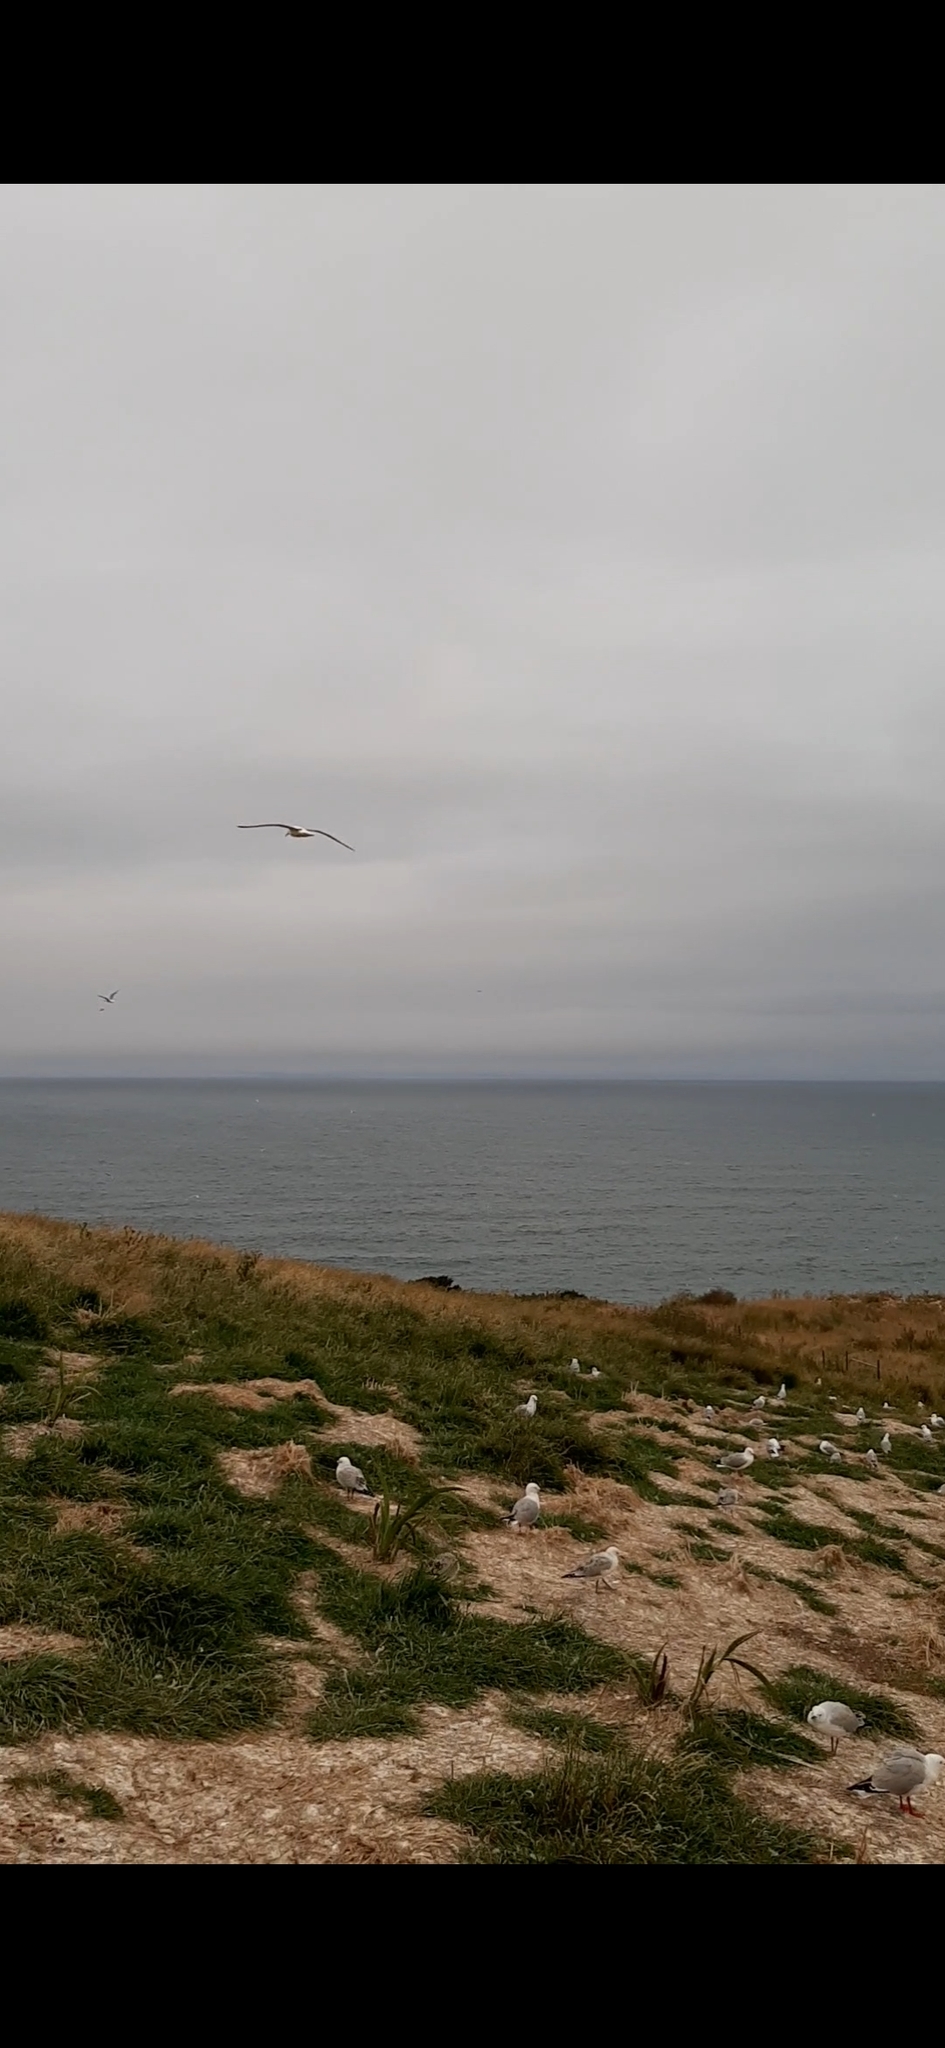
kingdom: Animalia
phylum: Chordata
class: Aves
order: Charadriiformes
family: Laridae
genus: Chroicocephalus
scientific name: Chroicocephalus novaehollandiae
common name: Silver gull
